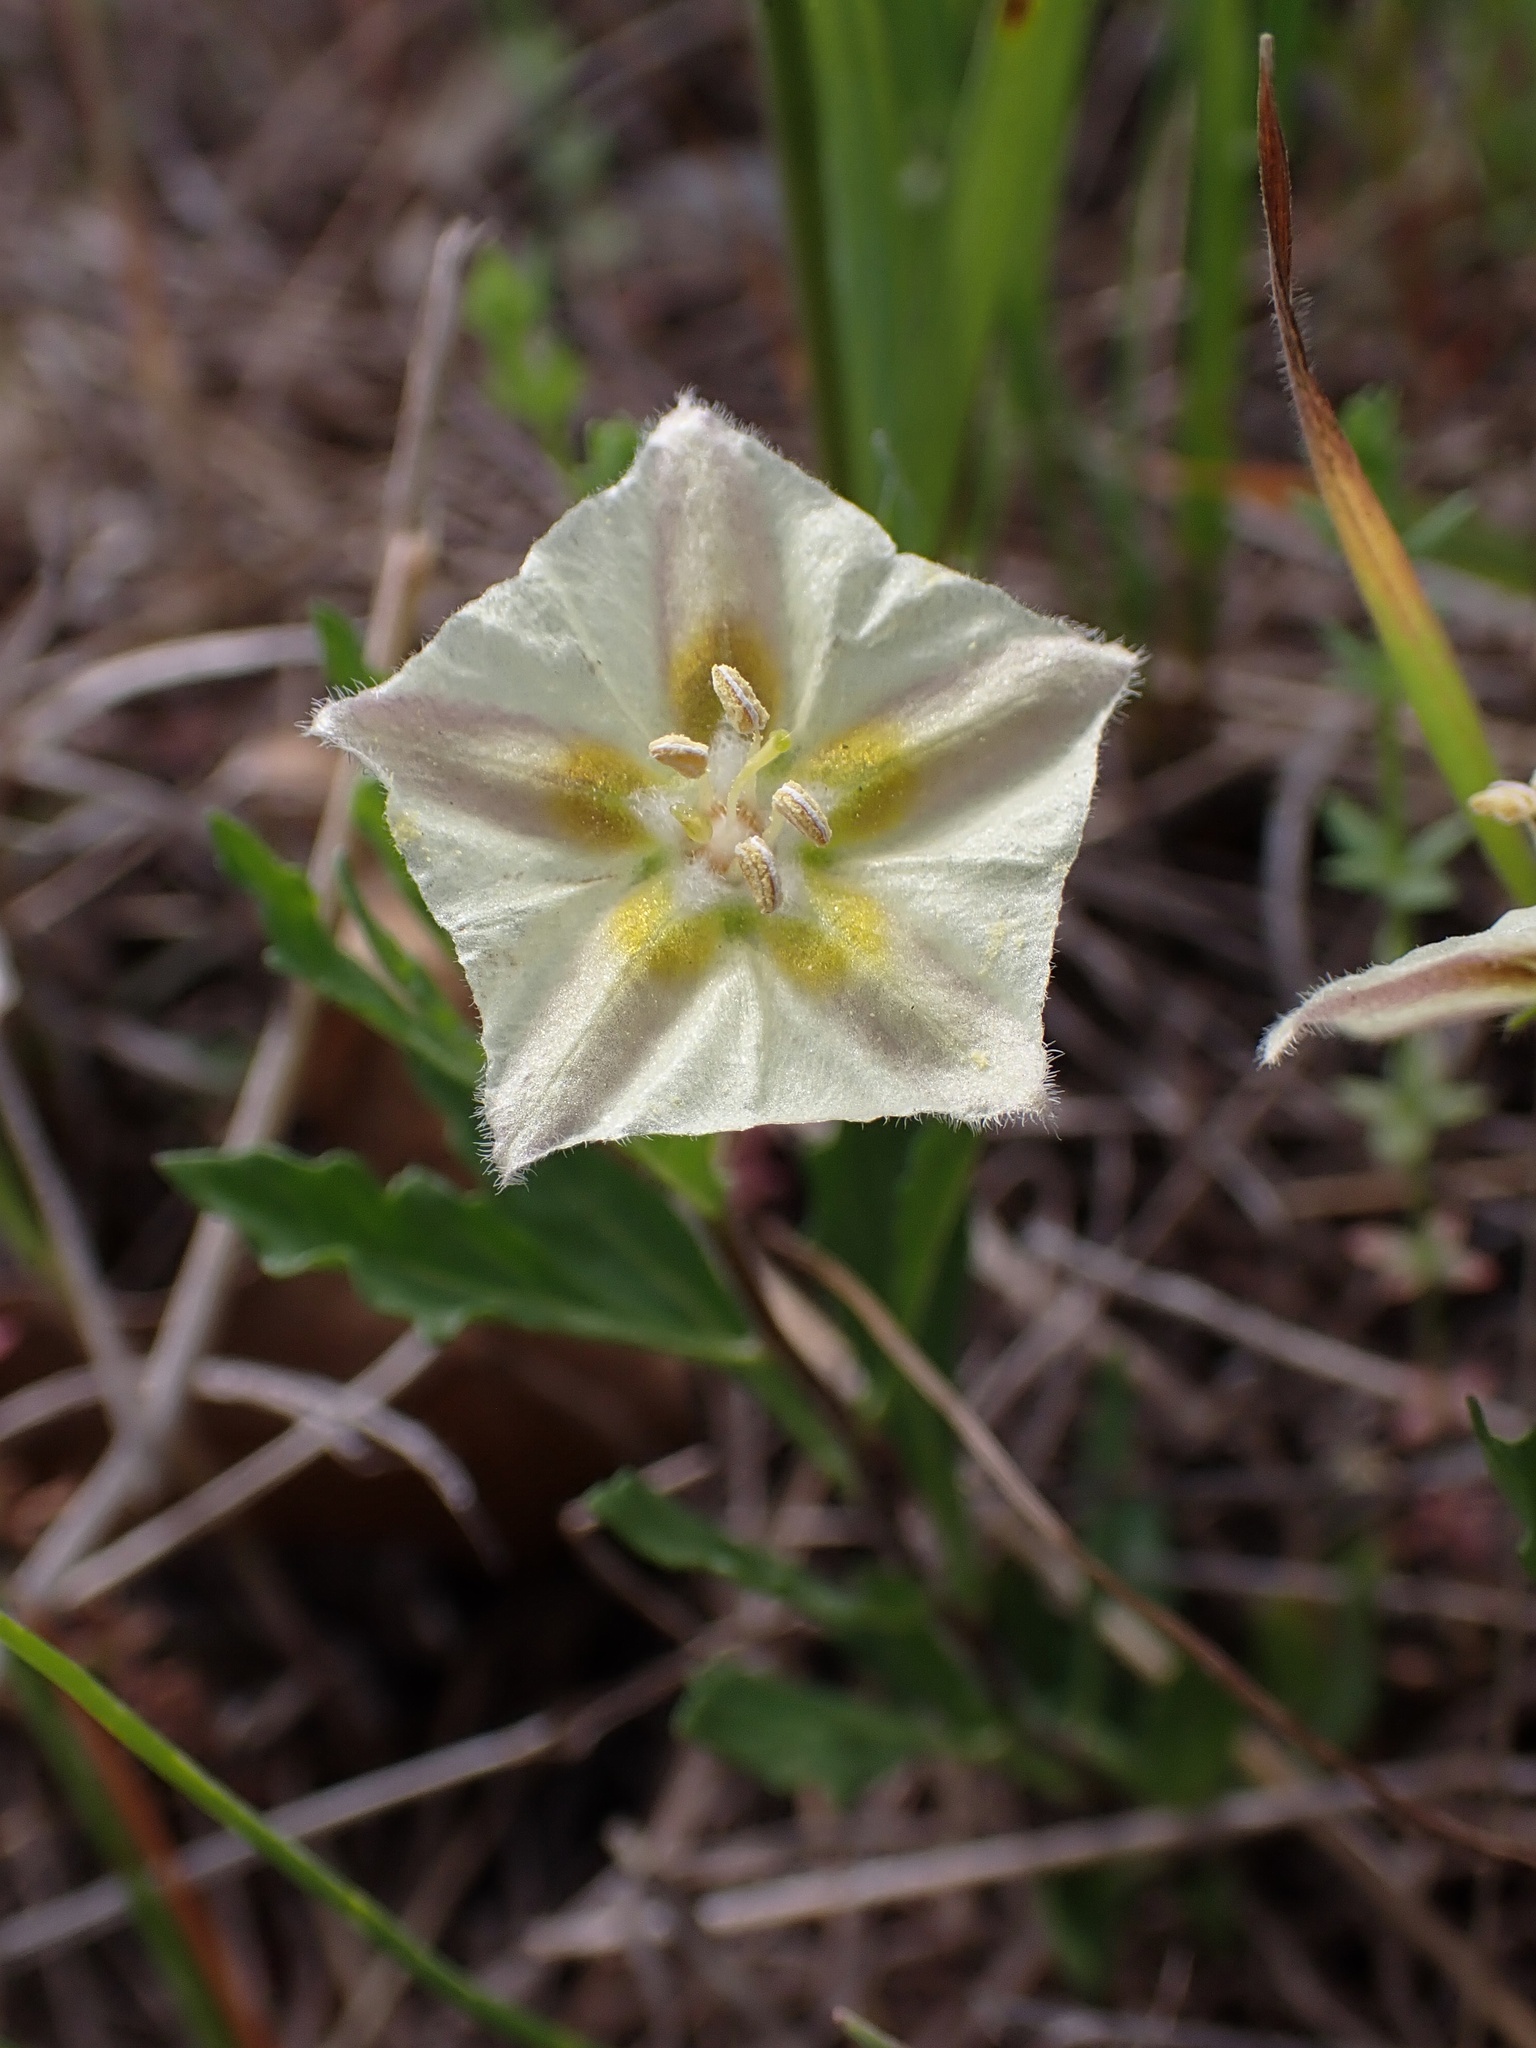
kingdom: Plantae
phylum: Tracheophyta
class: Magnoliopsida
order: Solanales
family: Solanaceae
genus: Chamaesaracha
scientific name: Chamaesaracha edwardsiana
